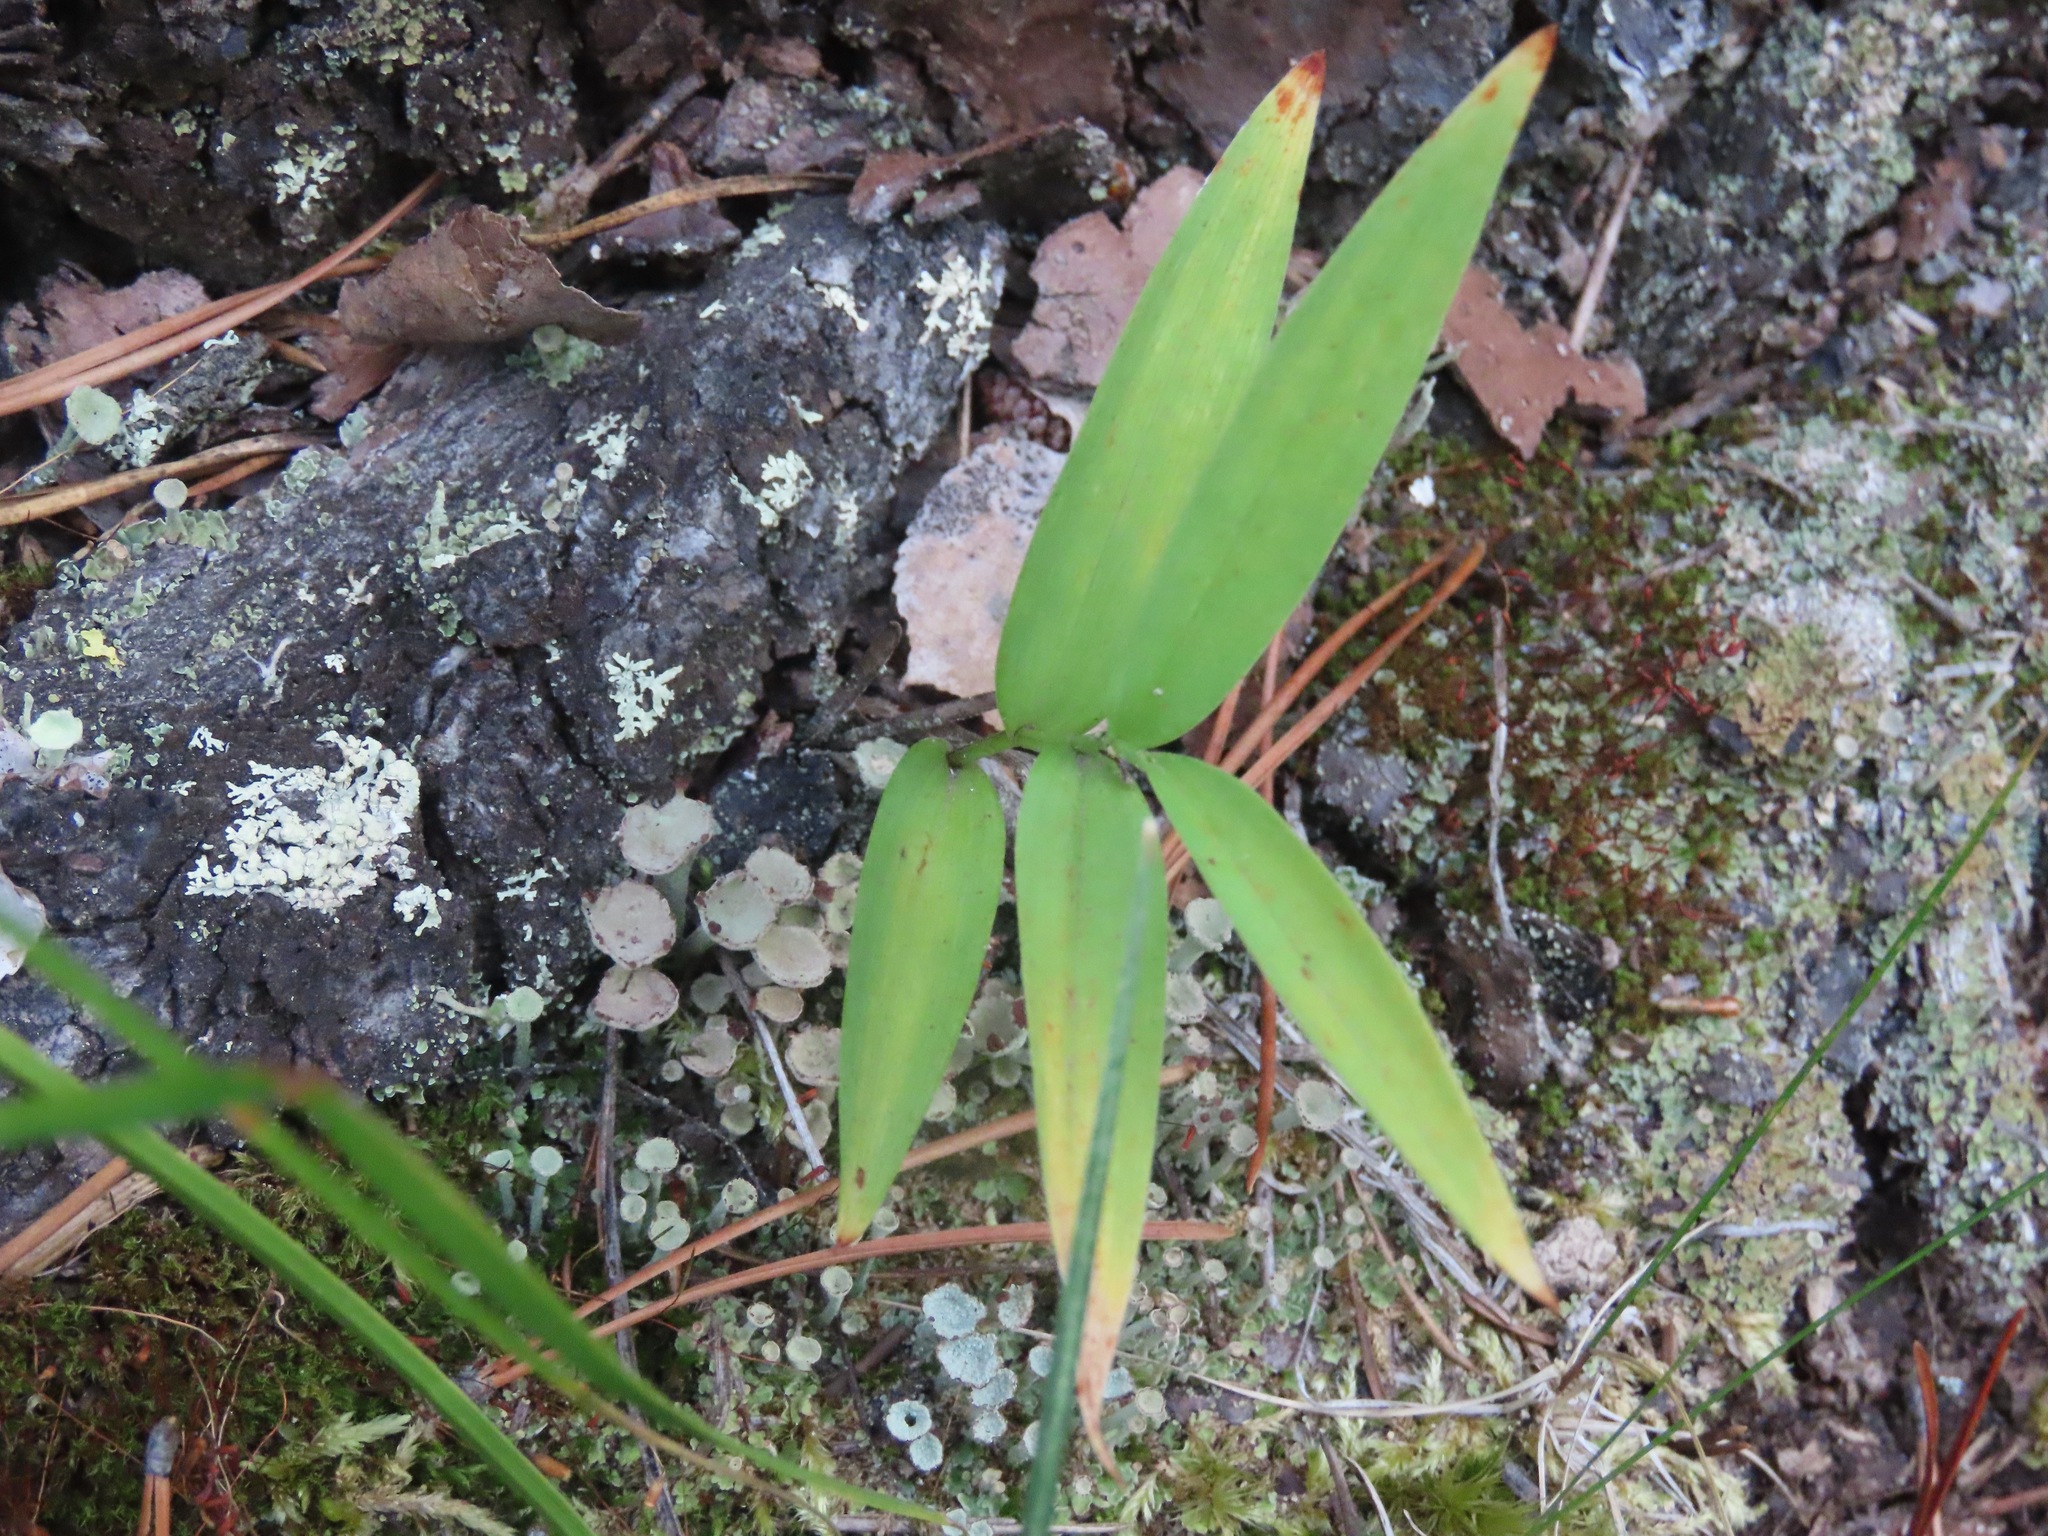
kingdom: Plantae
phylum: Tracheophyta
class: Liliopsida
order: Asparagales
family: Asparagaceae
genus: Maianthemum
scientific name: Maianthemum stellatum
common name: Little false solomon's seal
